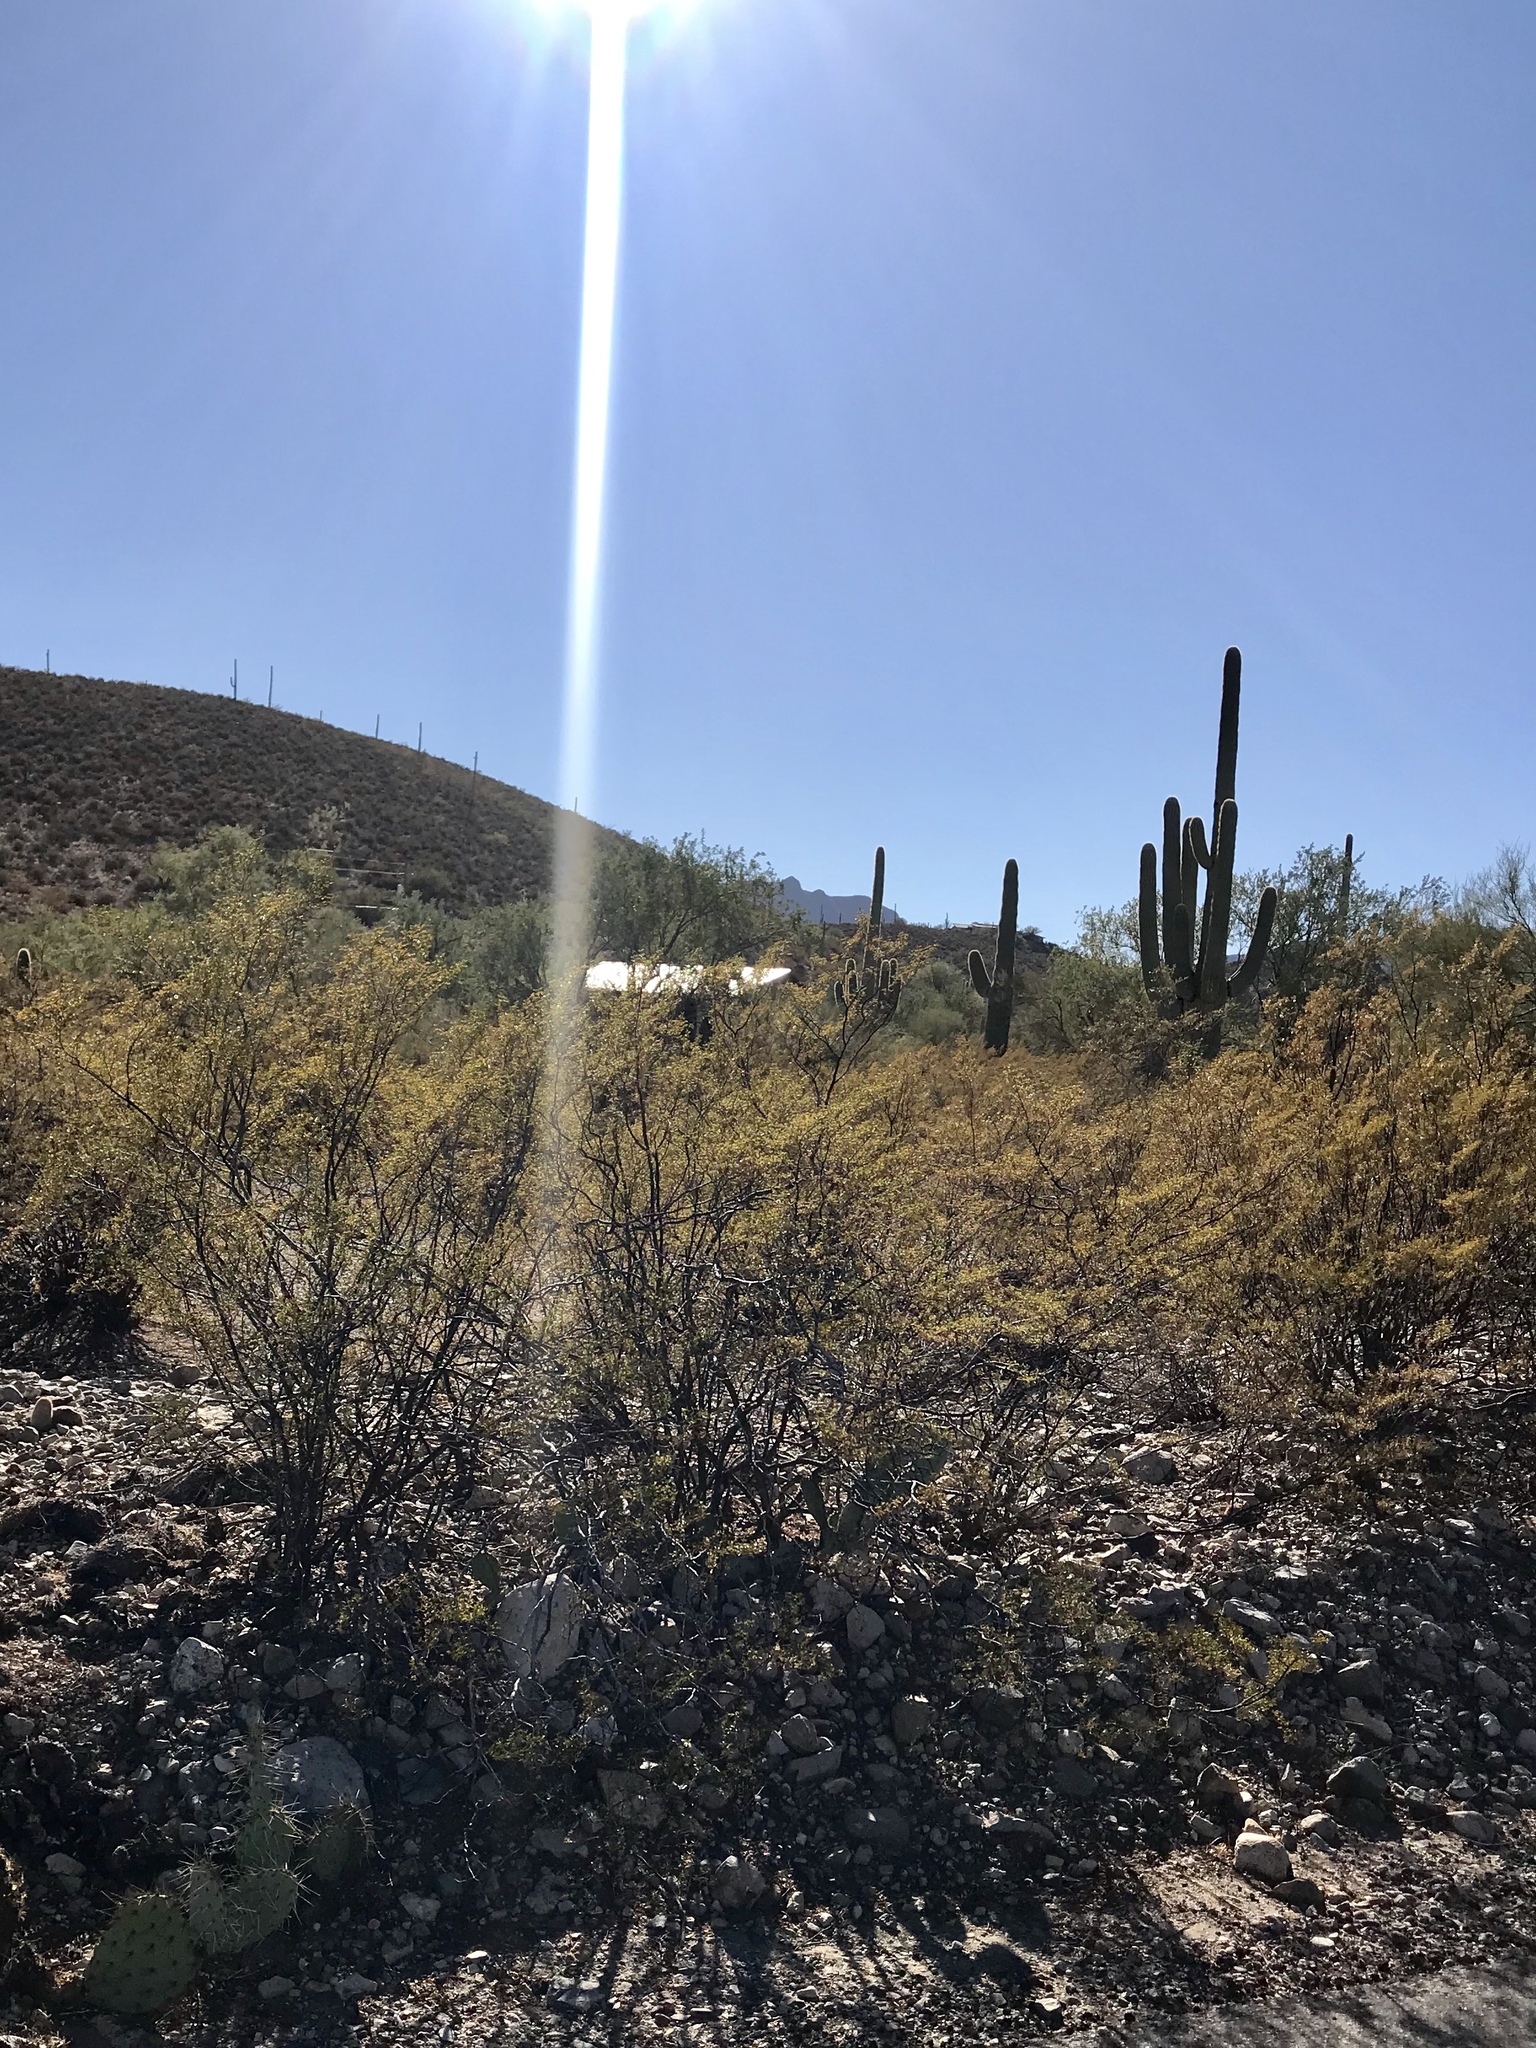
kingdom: Plantae
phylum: Tracheophyta
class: Magnoliopsida
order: Zygophyllales
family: Zygophyllaceae
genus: Larrea
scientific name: Larrea tridentata
